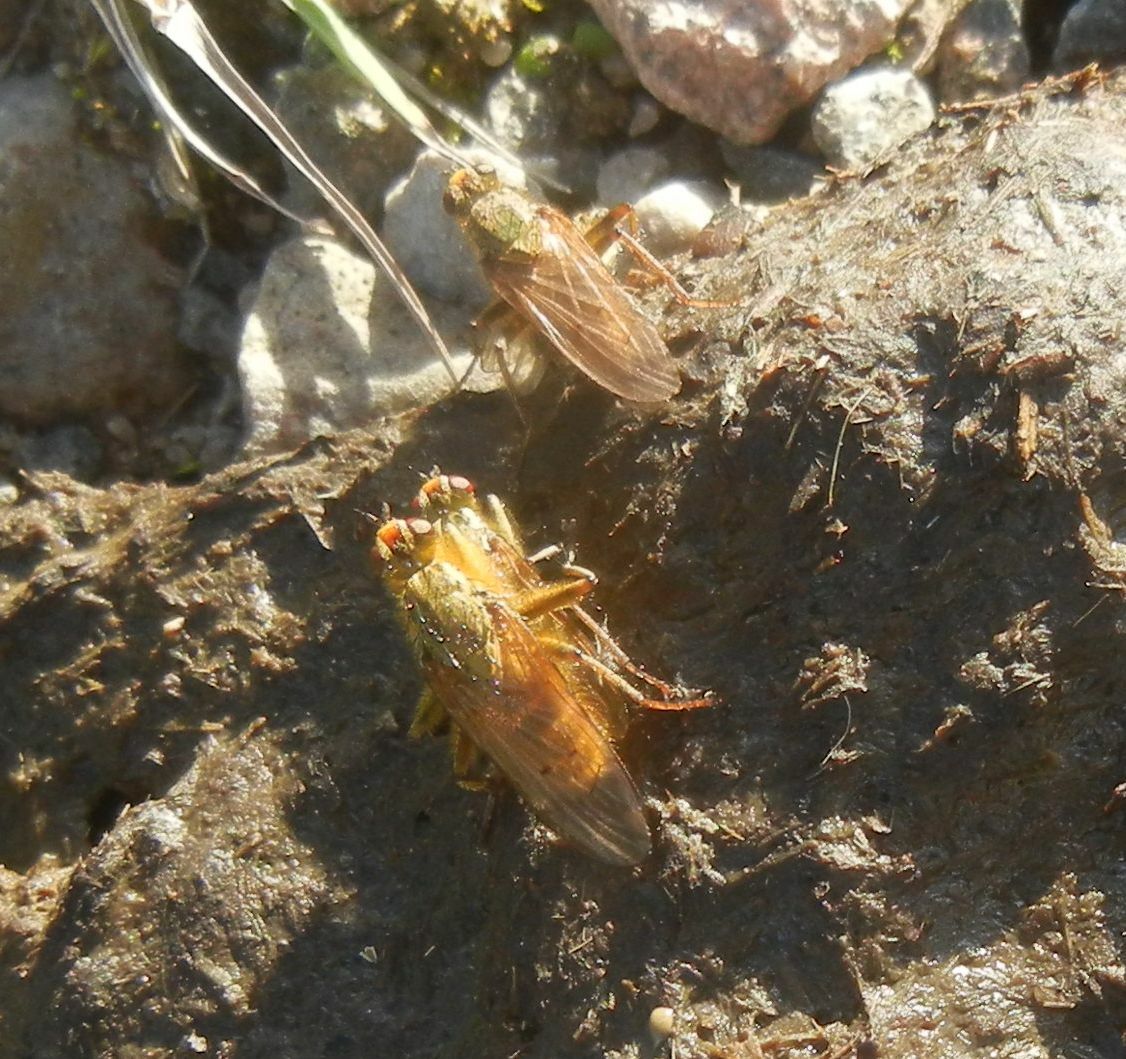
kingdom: Animalia
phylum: Arthropoda
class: Insecta
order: Diptera
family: Scathophagidae
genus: Scathophaga
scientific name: Scathophaga stercoraria
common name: Yellow dung fly
